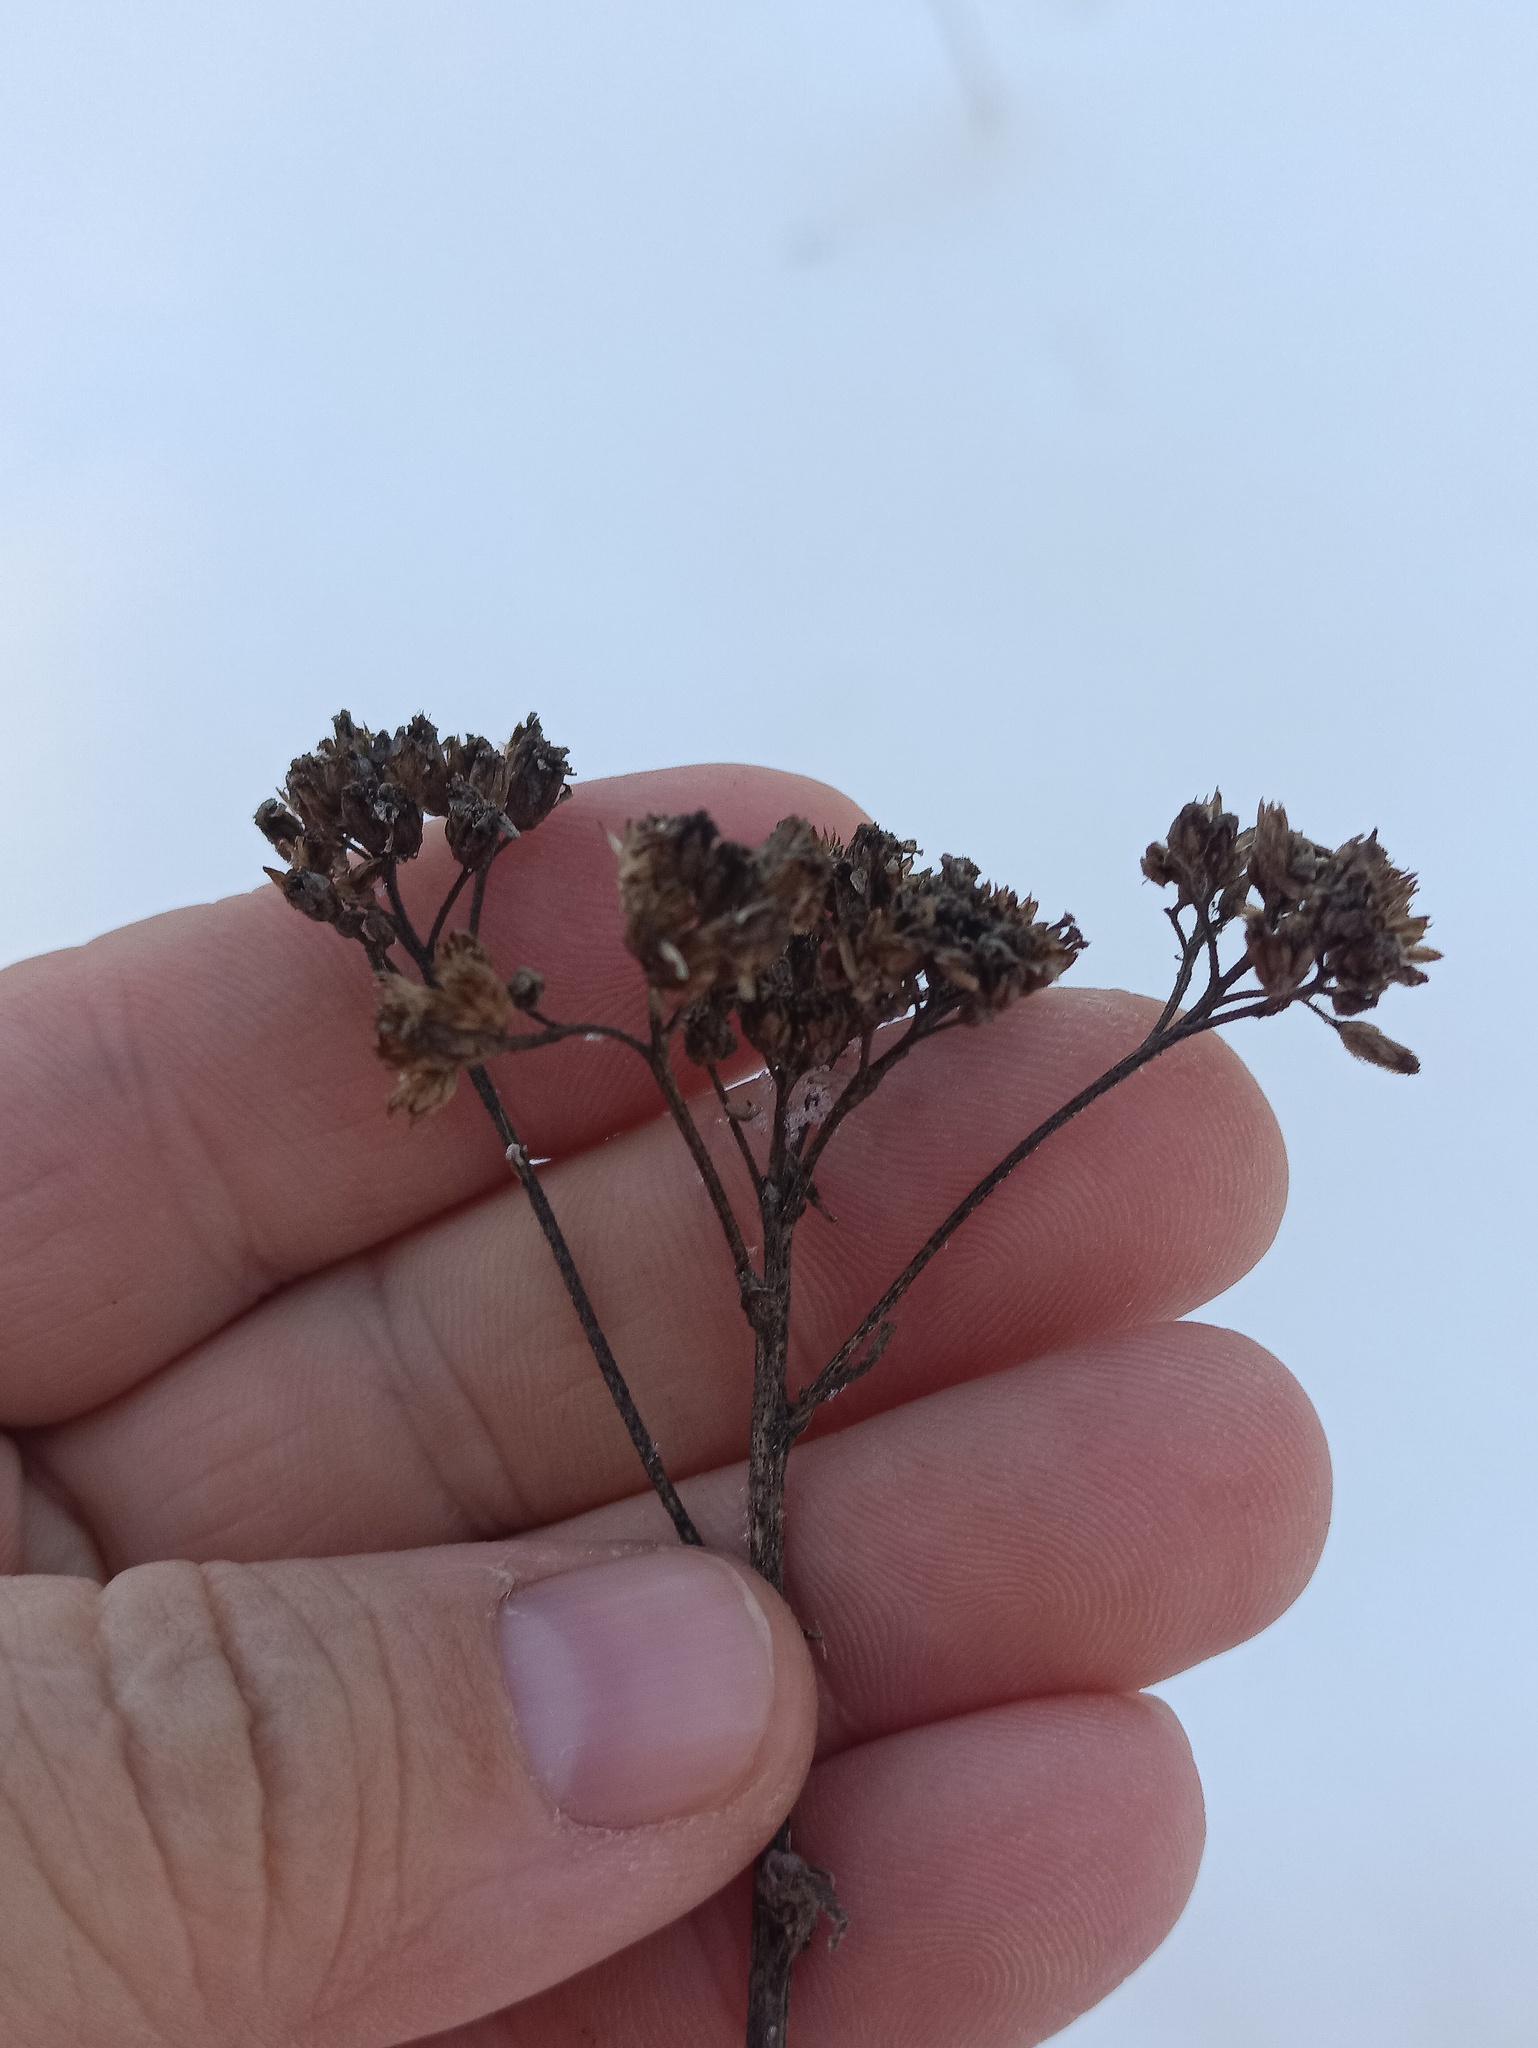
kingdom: Plantae
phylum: Tracheophyta
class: Magnoliopsida
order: Asterales
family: Asteraceae
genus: Achillea
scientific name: Achillea millefolium
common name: Yarrow
